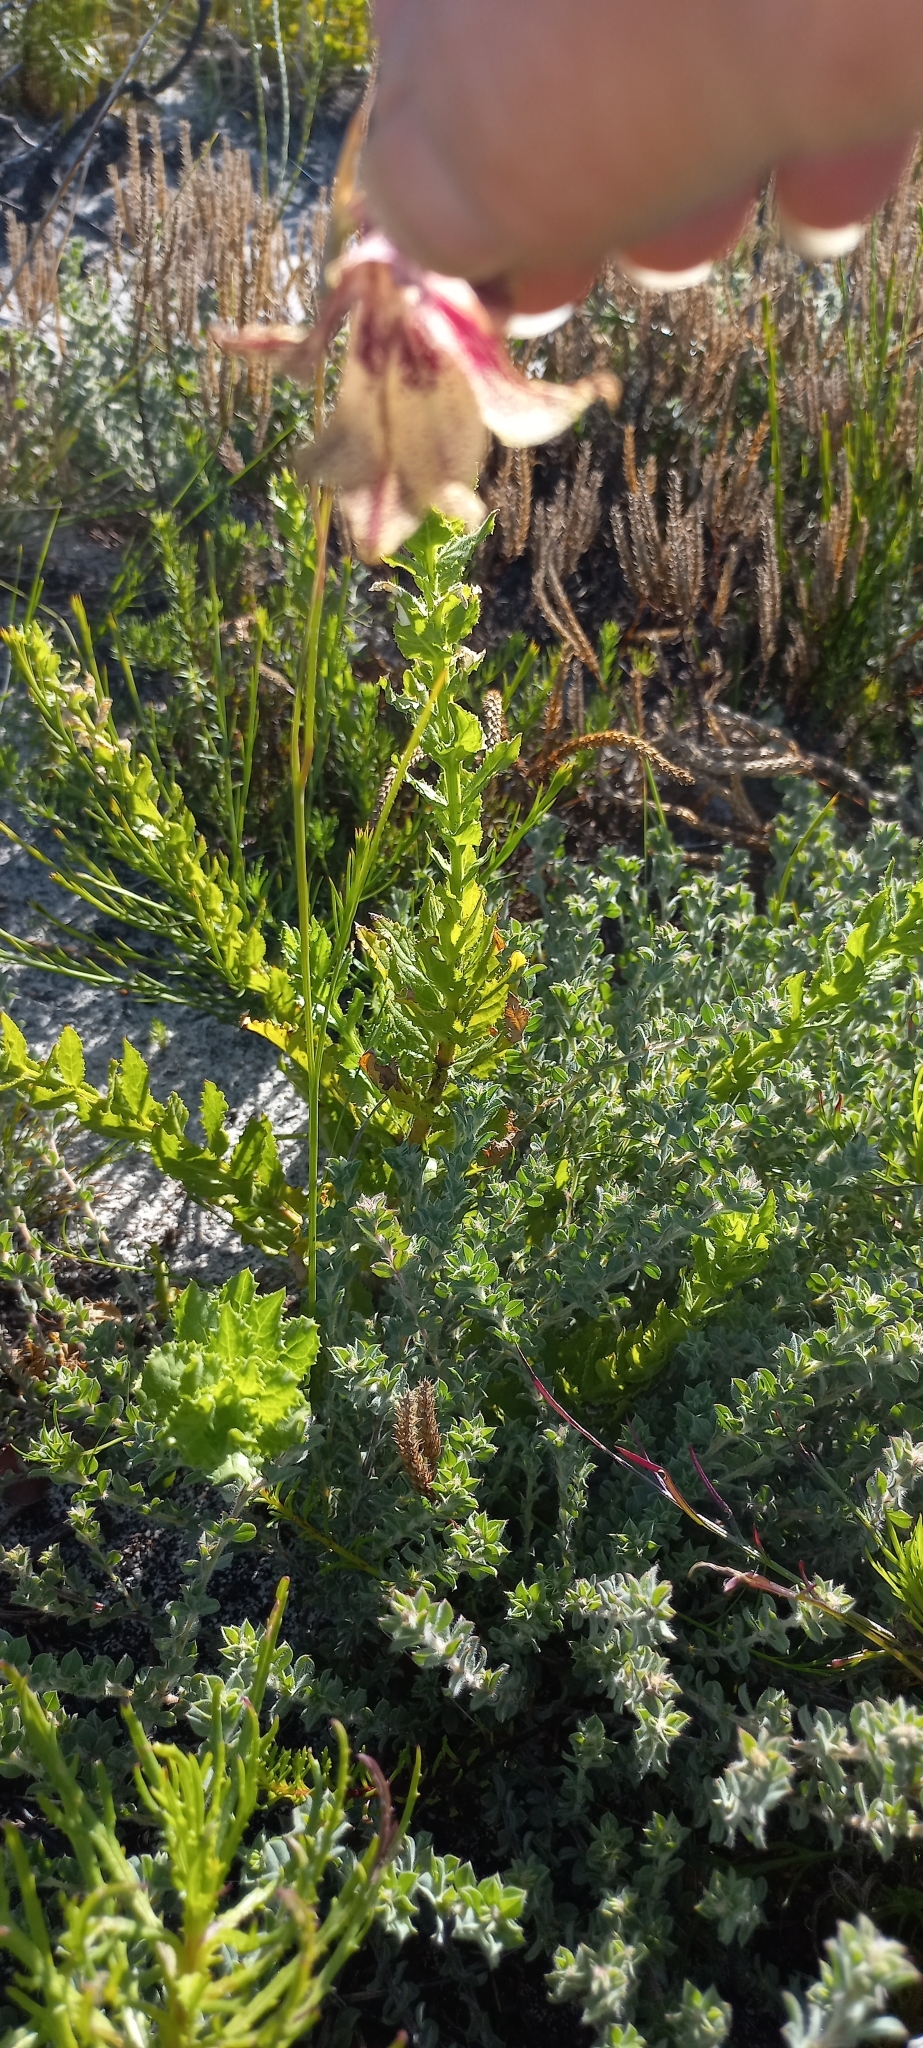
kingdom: Plantae
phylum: Tracheophyta
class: Liliopsida
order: Asparagales
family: Iridaceae
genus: Gladiolus
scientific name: Gladiolus maculatus
